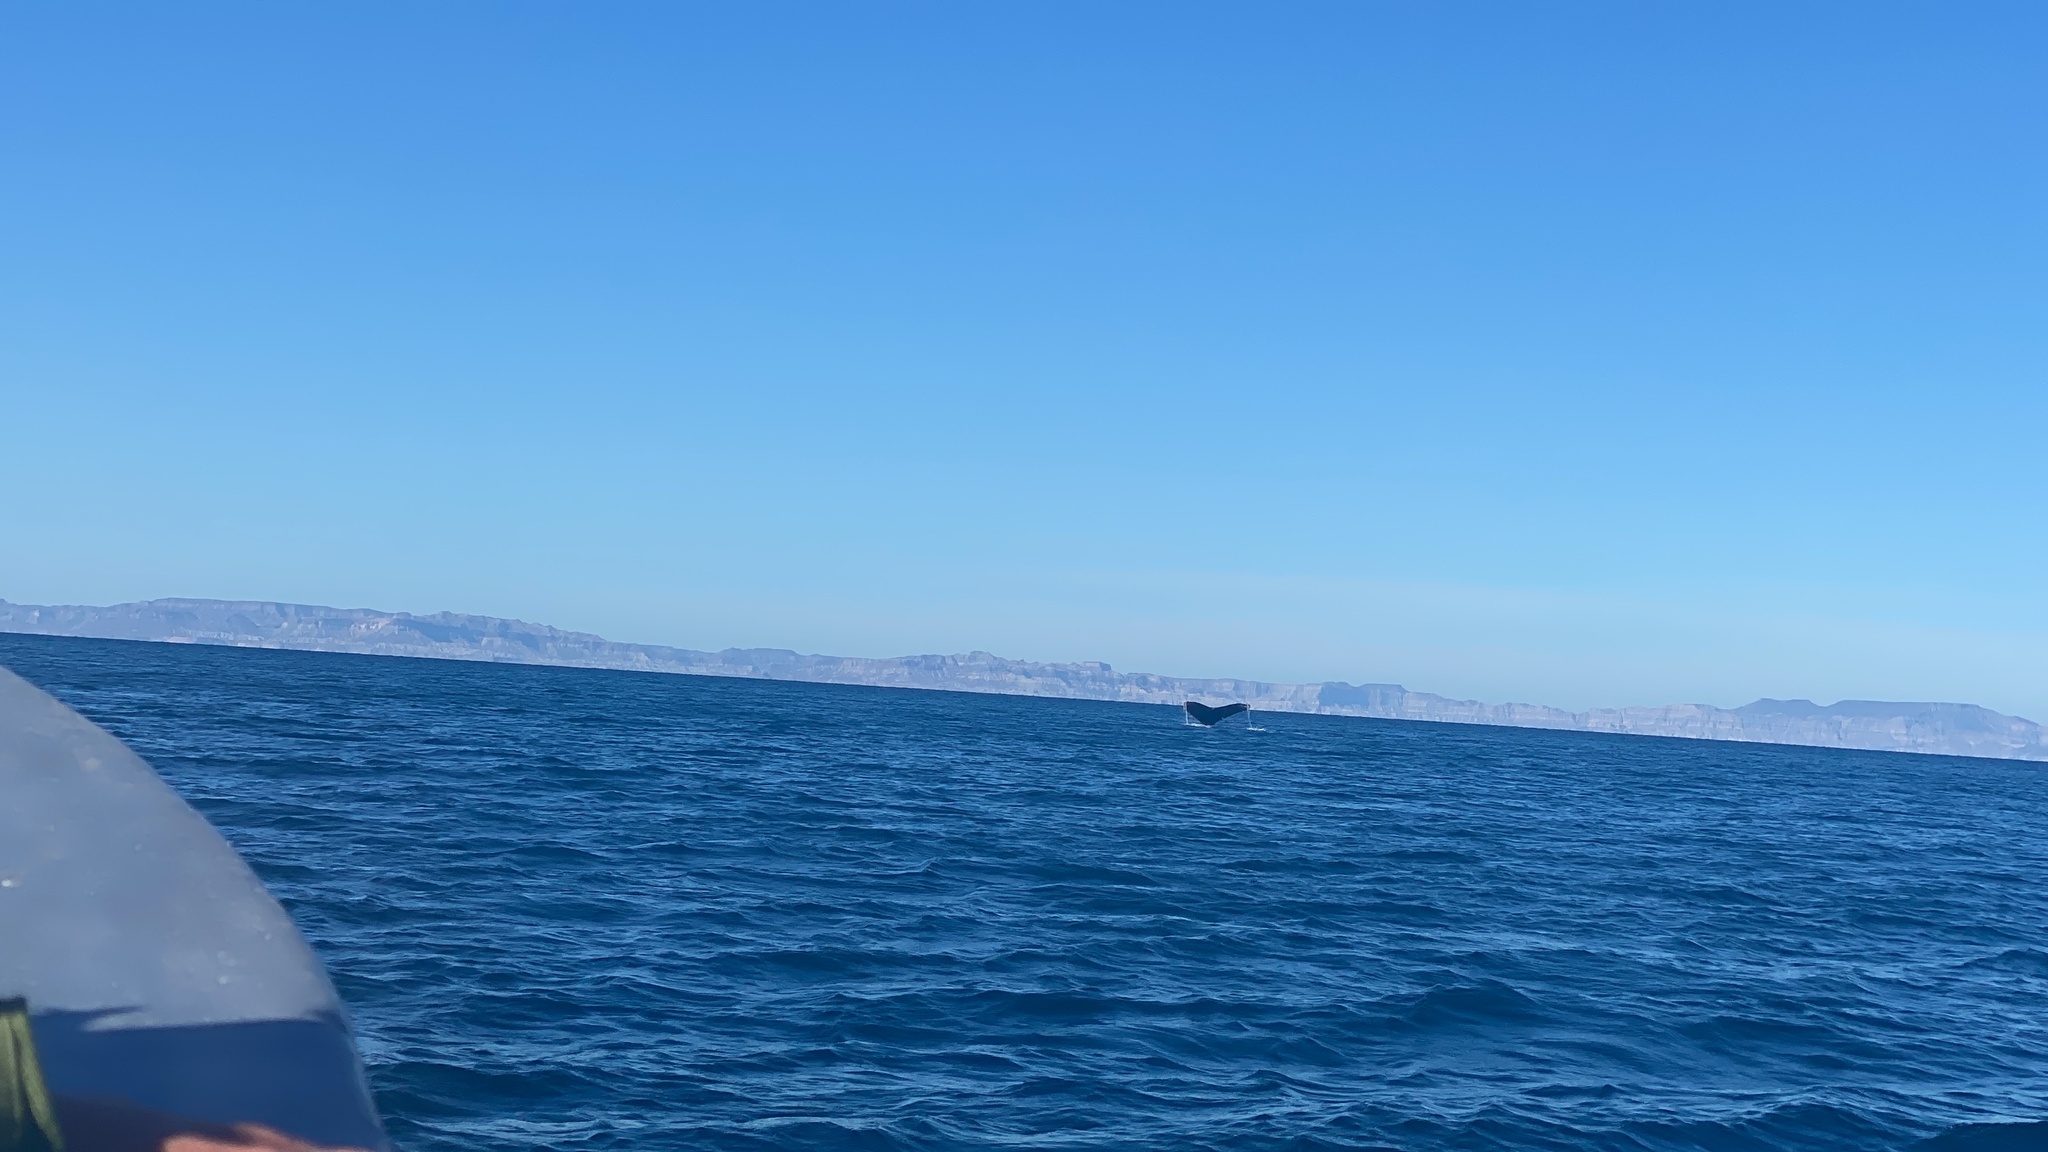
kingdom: Animalia
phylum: Chordata
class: Mammalia
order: Cetacea
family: Balaenopteridae
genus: Megaptera
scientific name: Megaptera novaeangliae
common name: Humpback whale
